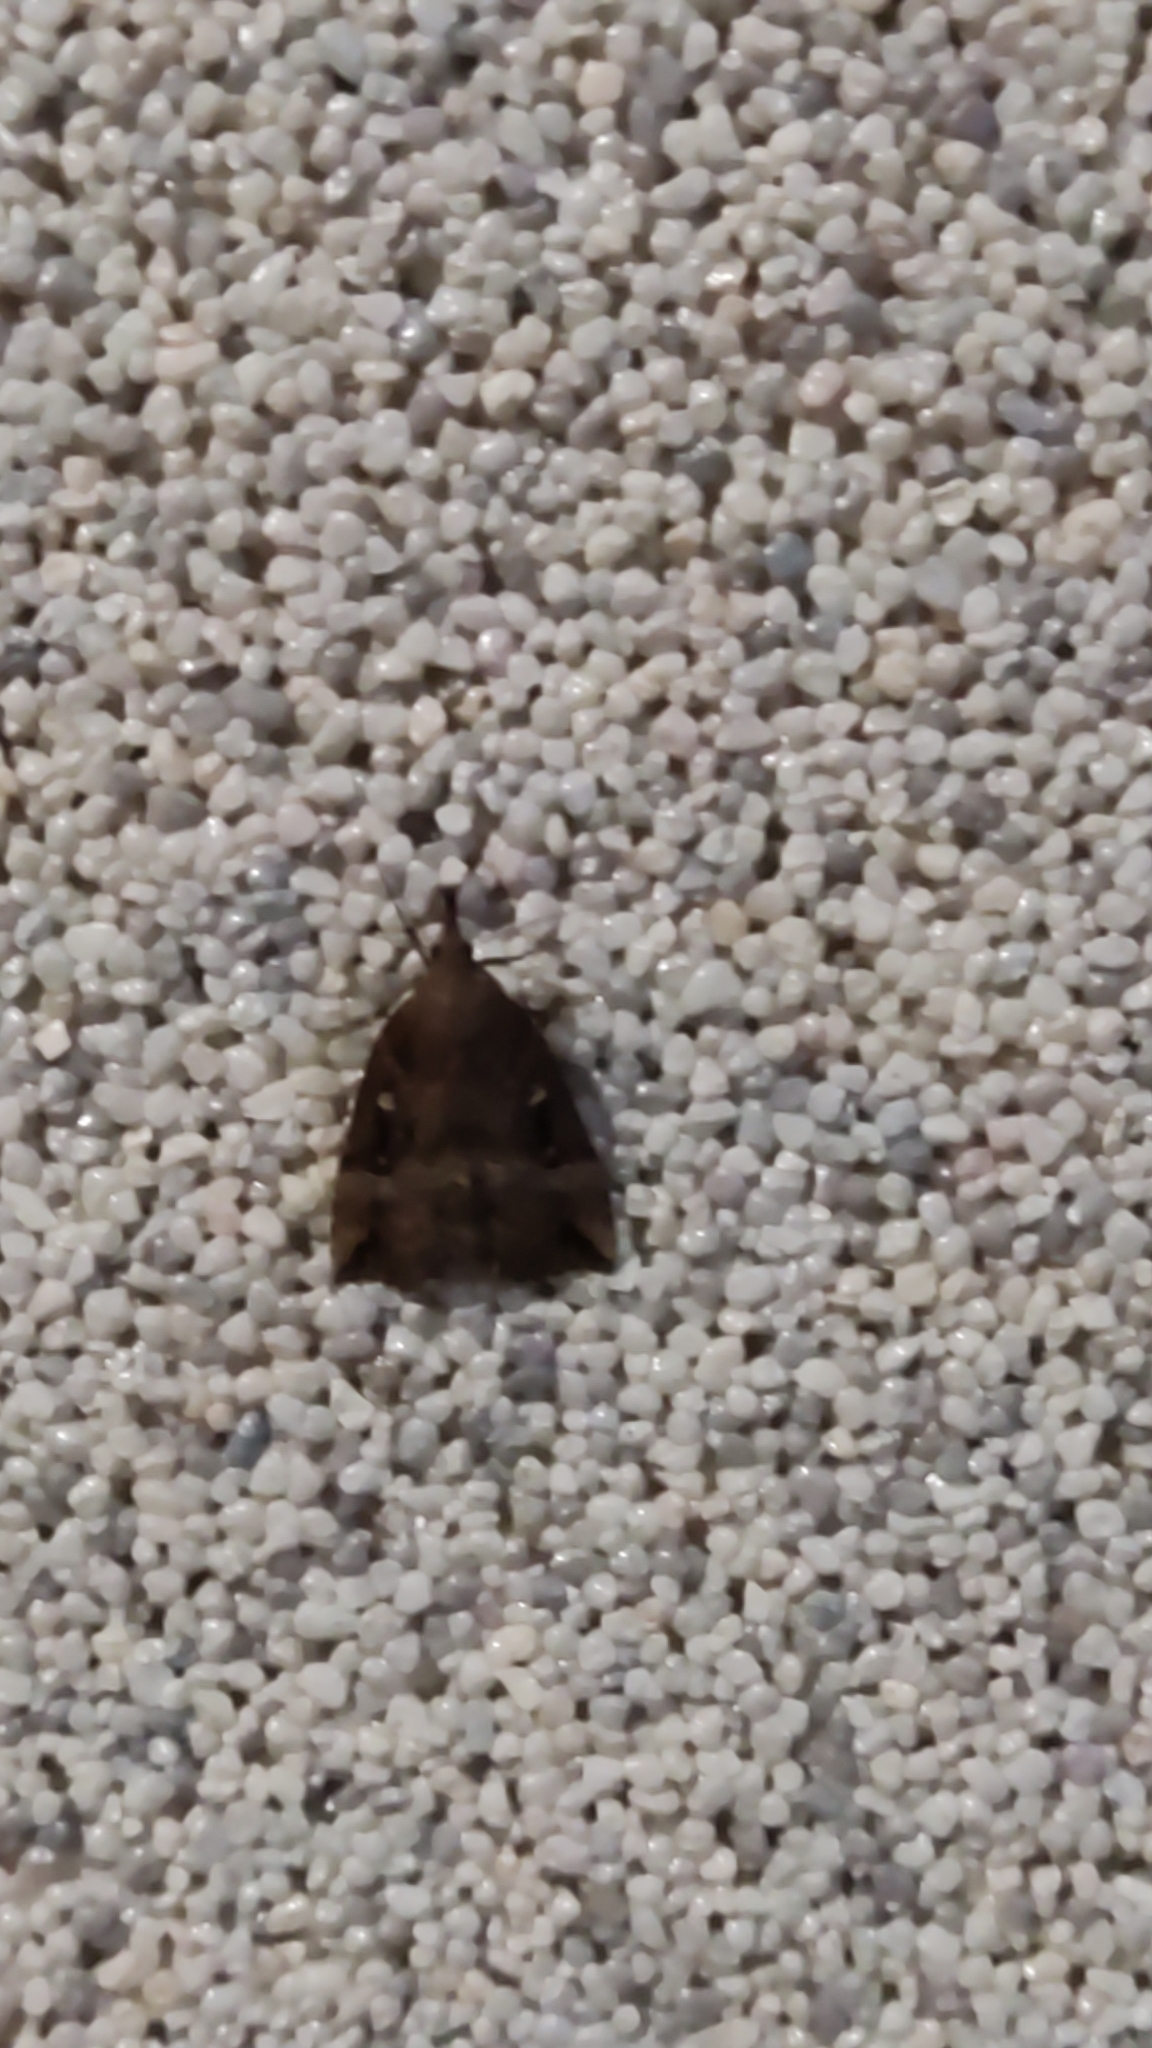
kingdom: Animalia
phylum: Arthropoda
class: Insecta
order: Lepidoptera
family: Erebidae
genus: Hypena
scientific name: Hypena rostralis
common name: Buttoned snout
